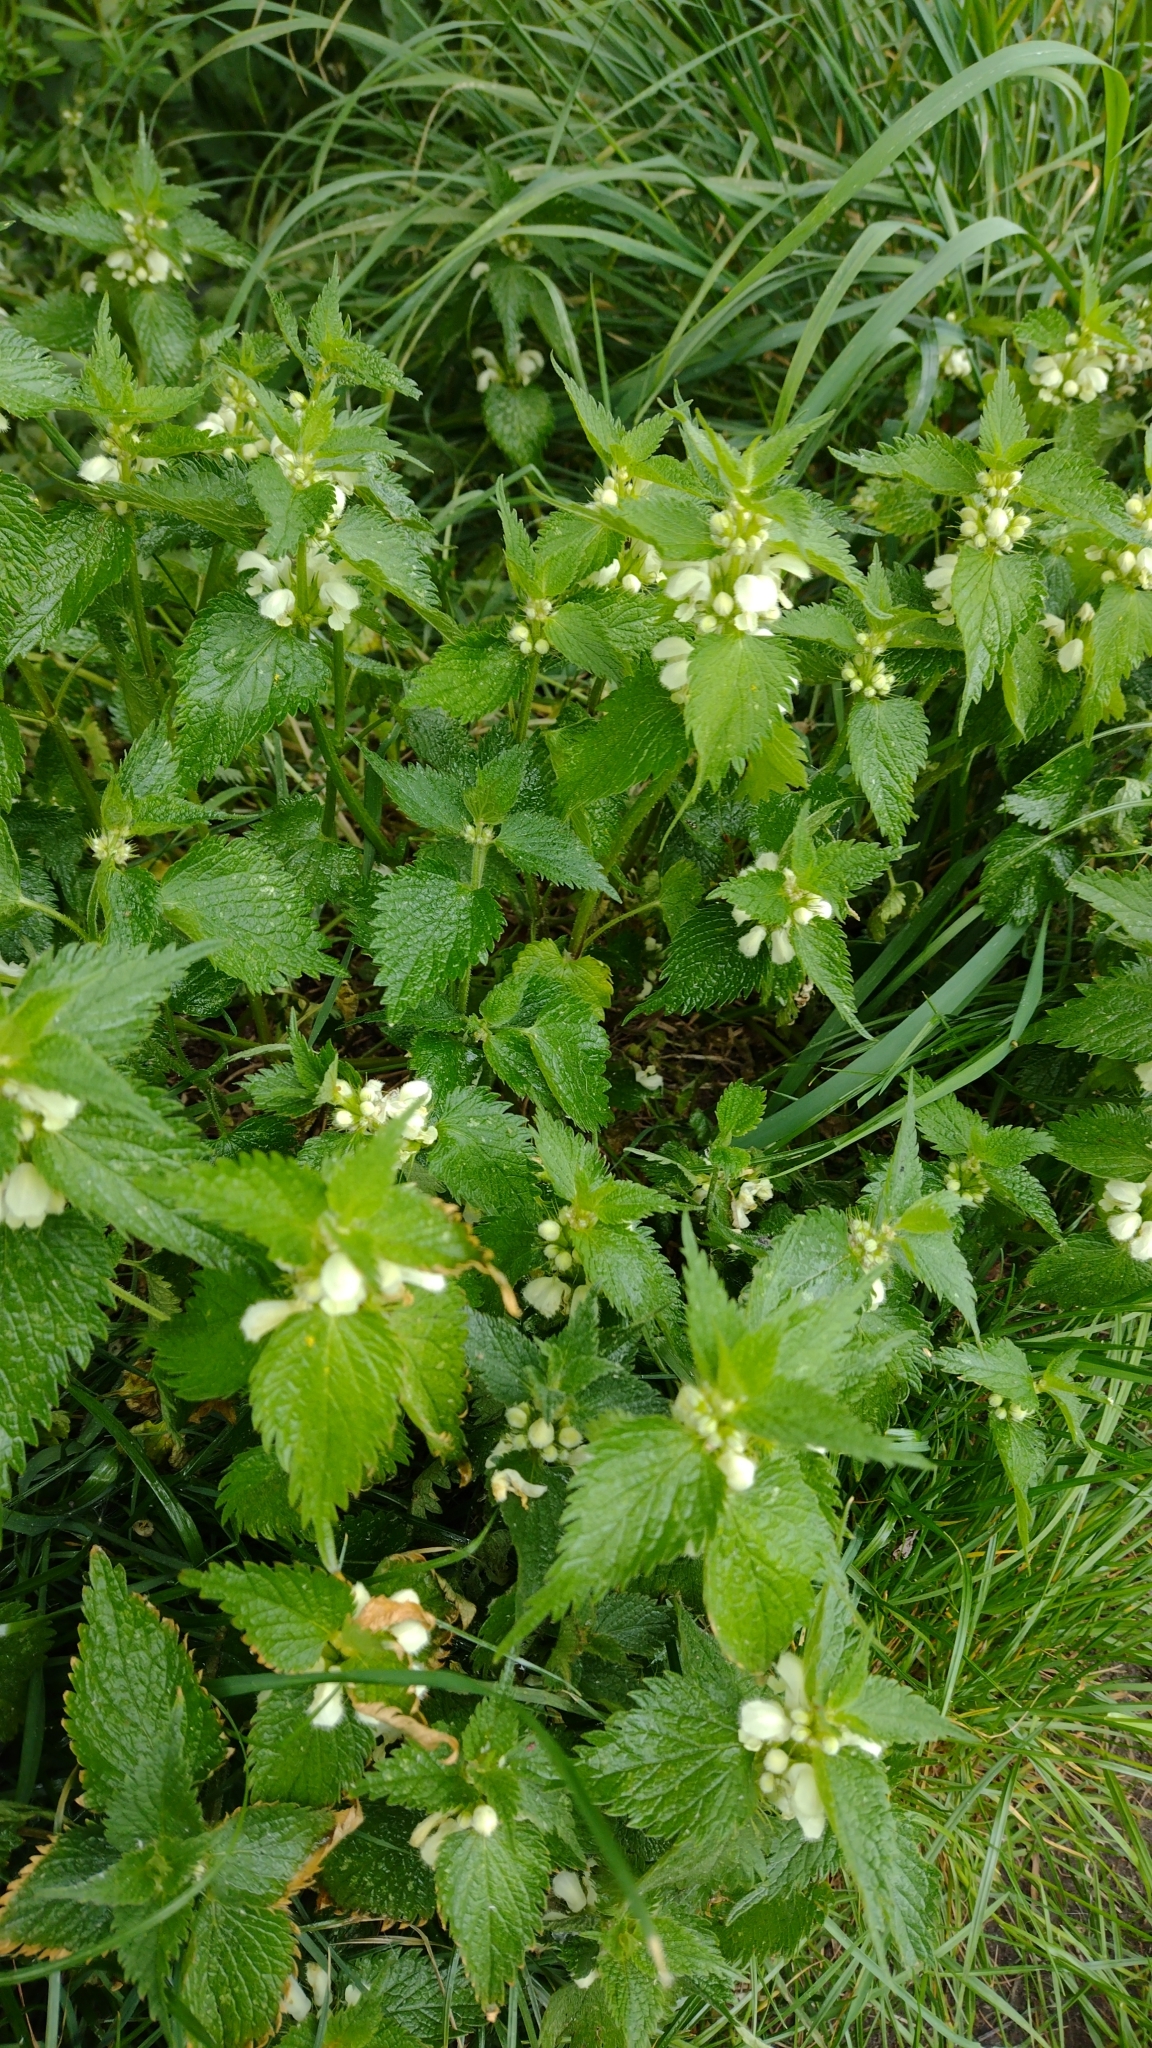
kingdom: Plantae
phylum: Tracheophyta
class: Magnoliopsida
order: Lamiales
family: Lamiaceae
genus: Lamium
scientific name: Lamium album
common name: White dead-nettle
